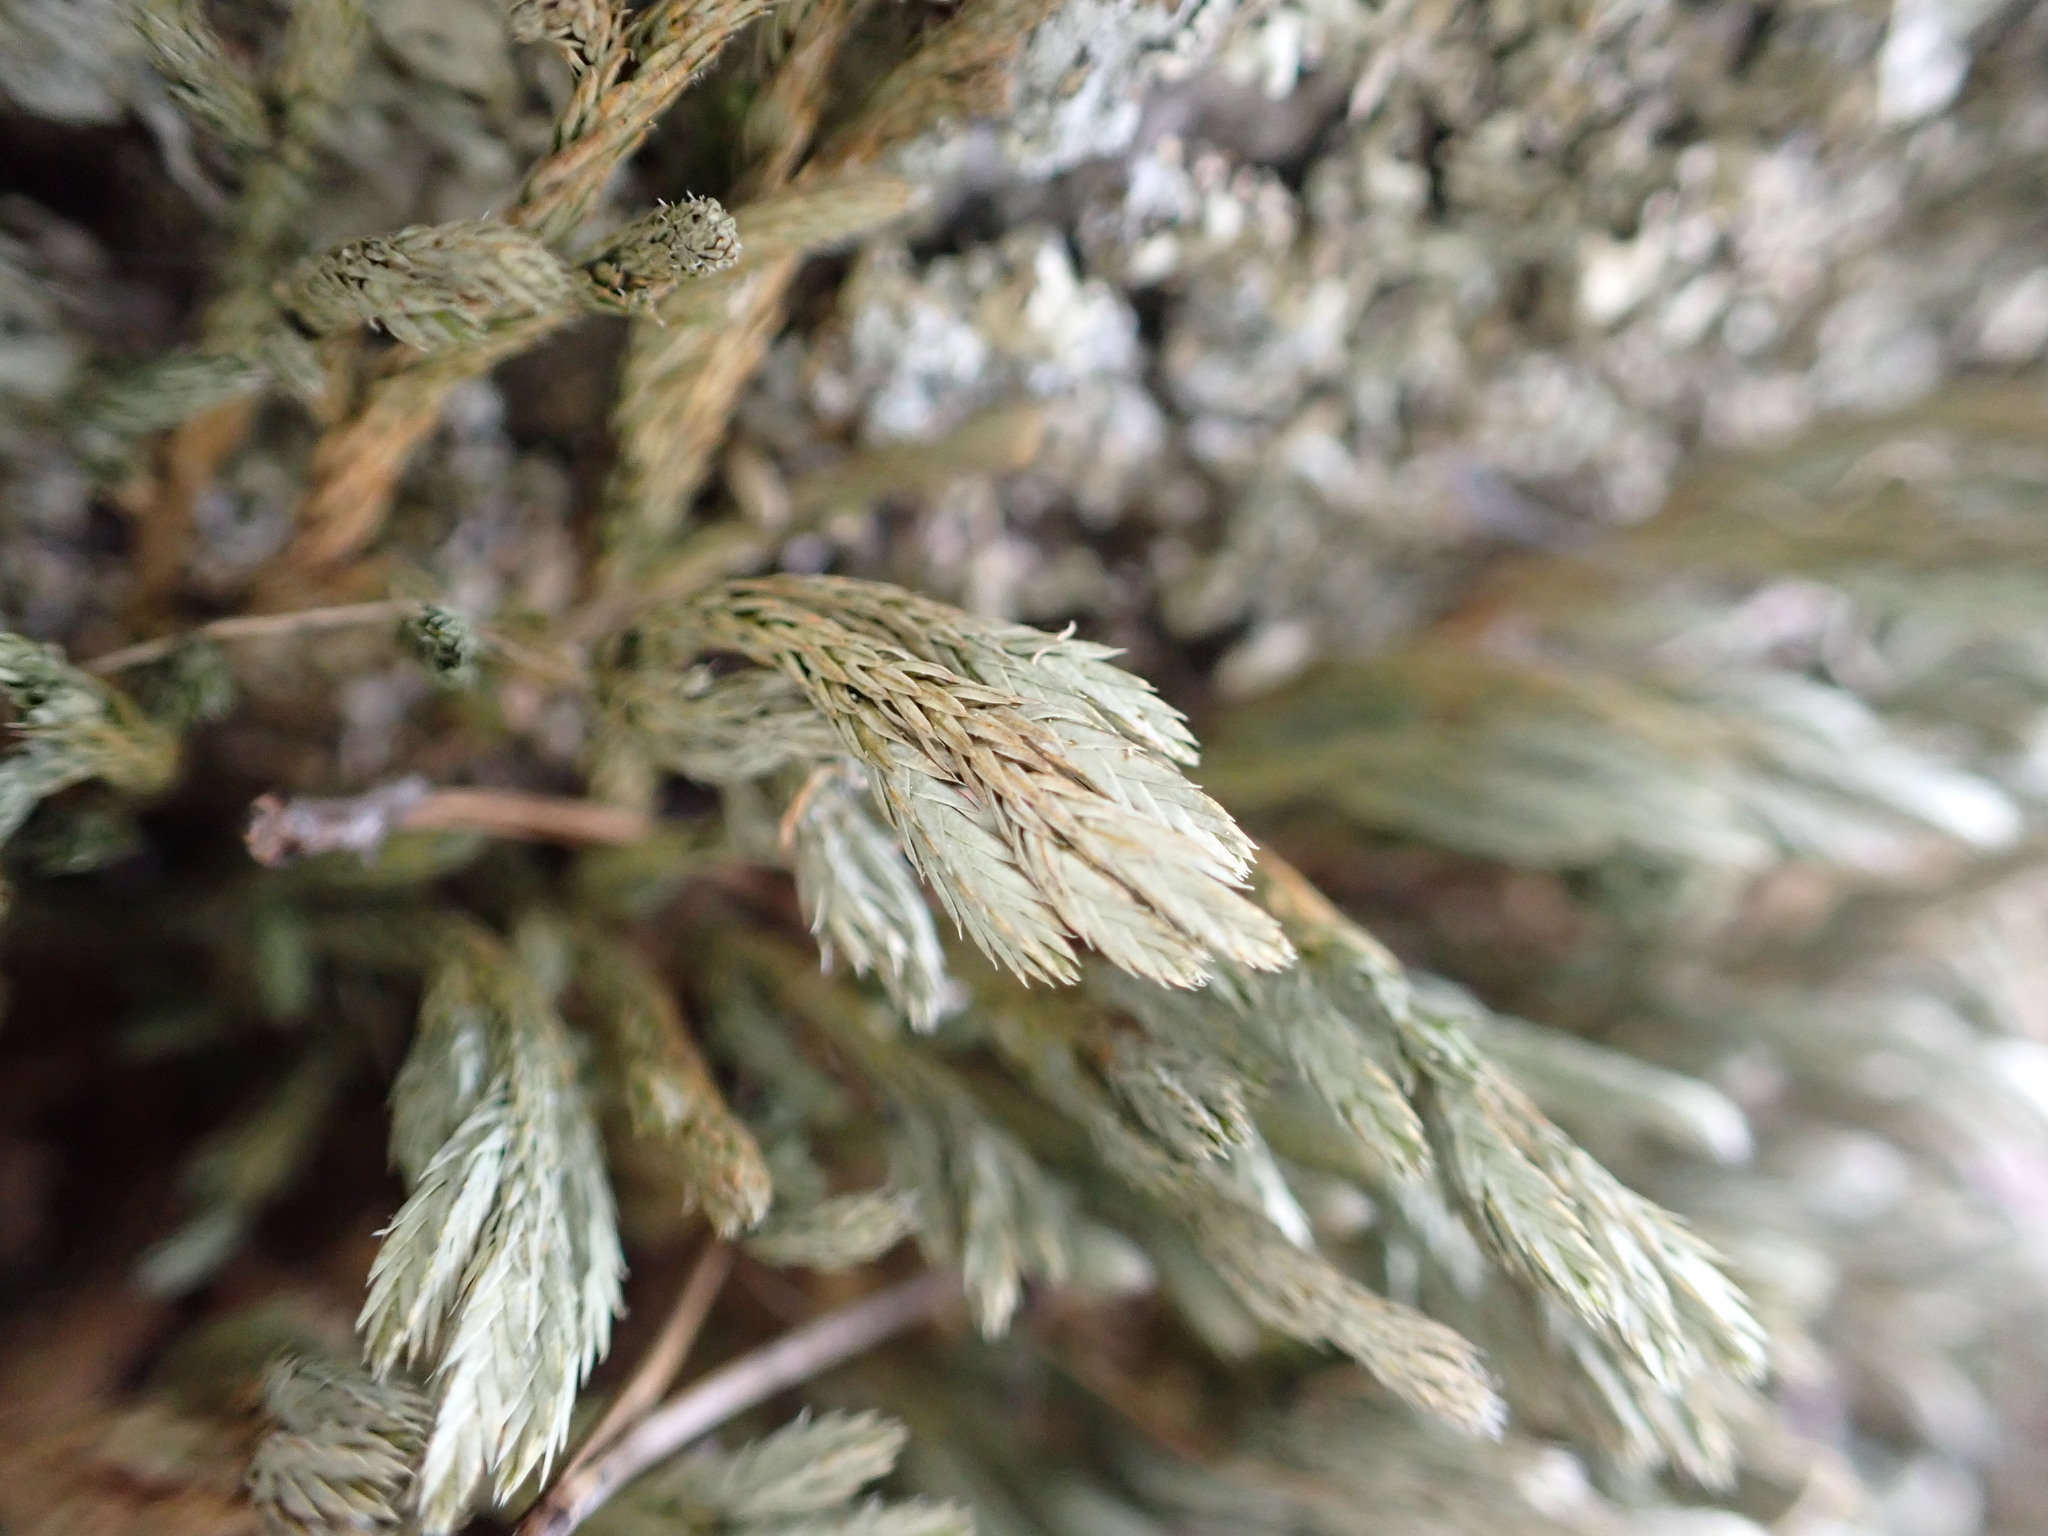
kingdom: Plantae
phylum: Tracheophyta
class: Lycopodiopsida
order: Selaginellales
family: Selaginellaceae
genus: Selaginella
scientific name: Selaginella wallacei
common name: Wallace's selaginella
